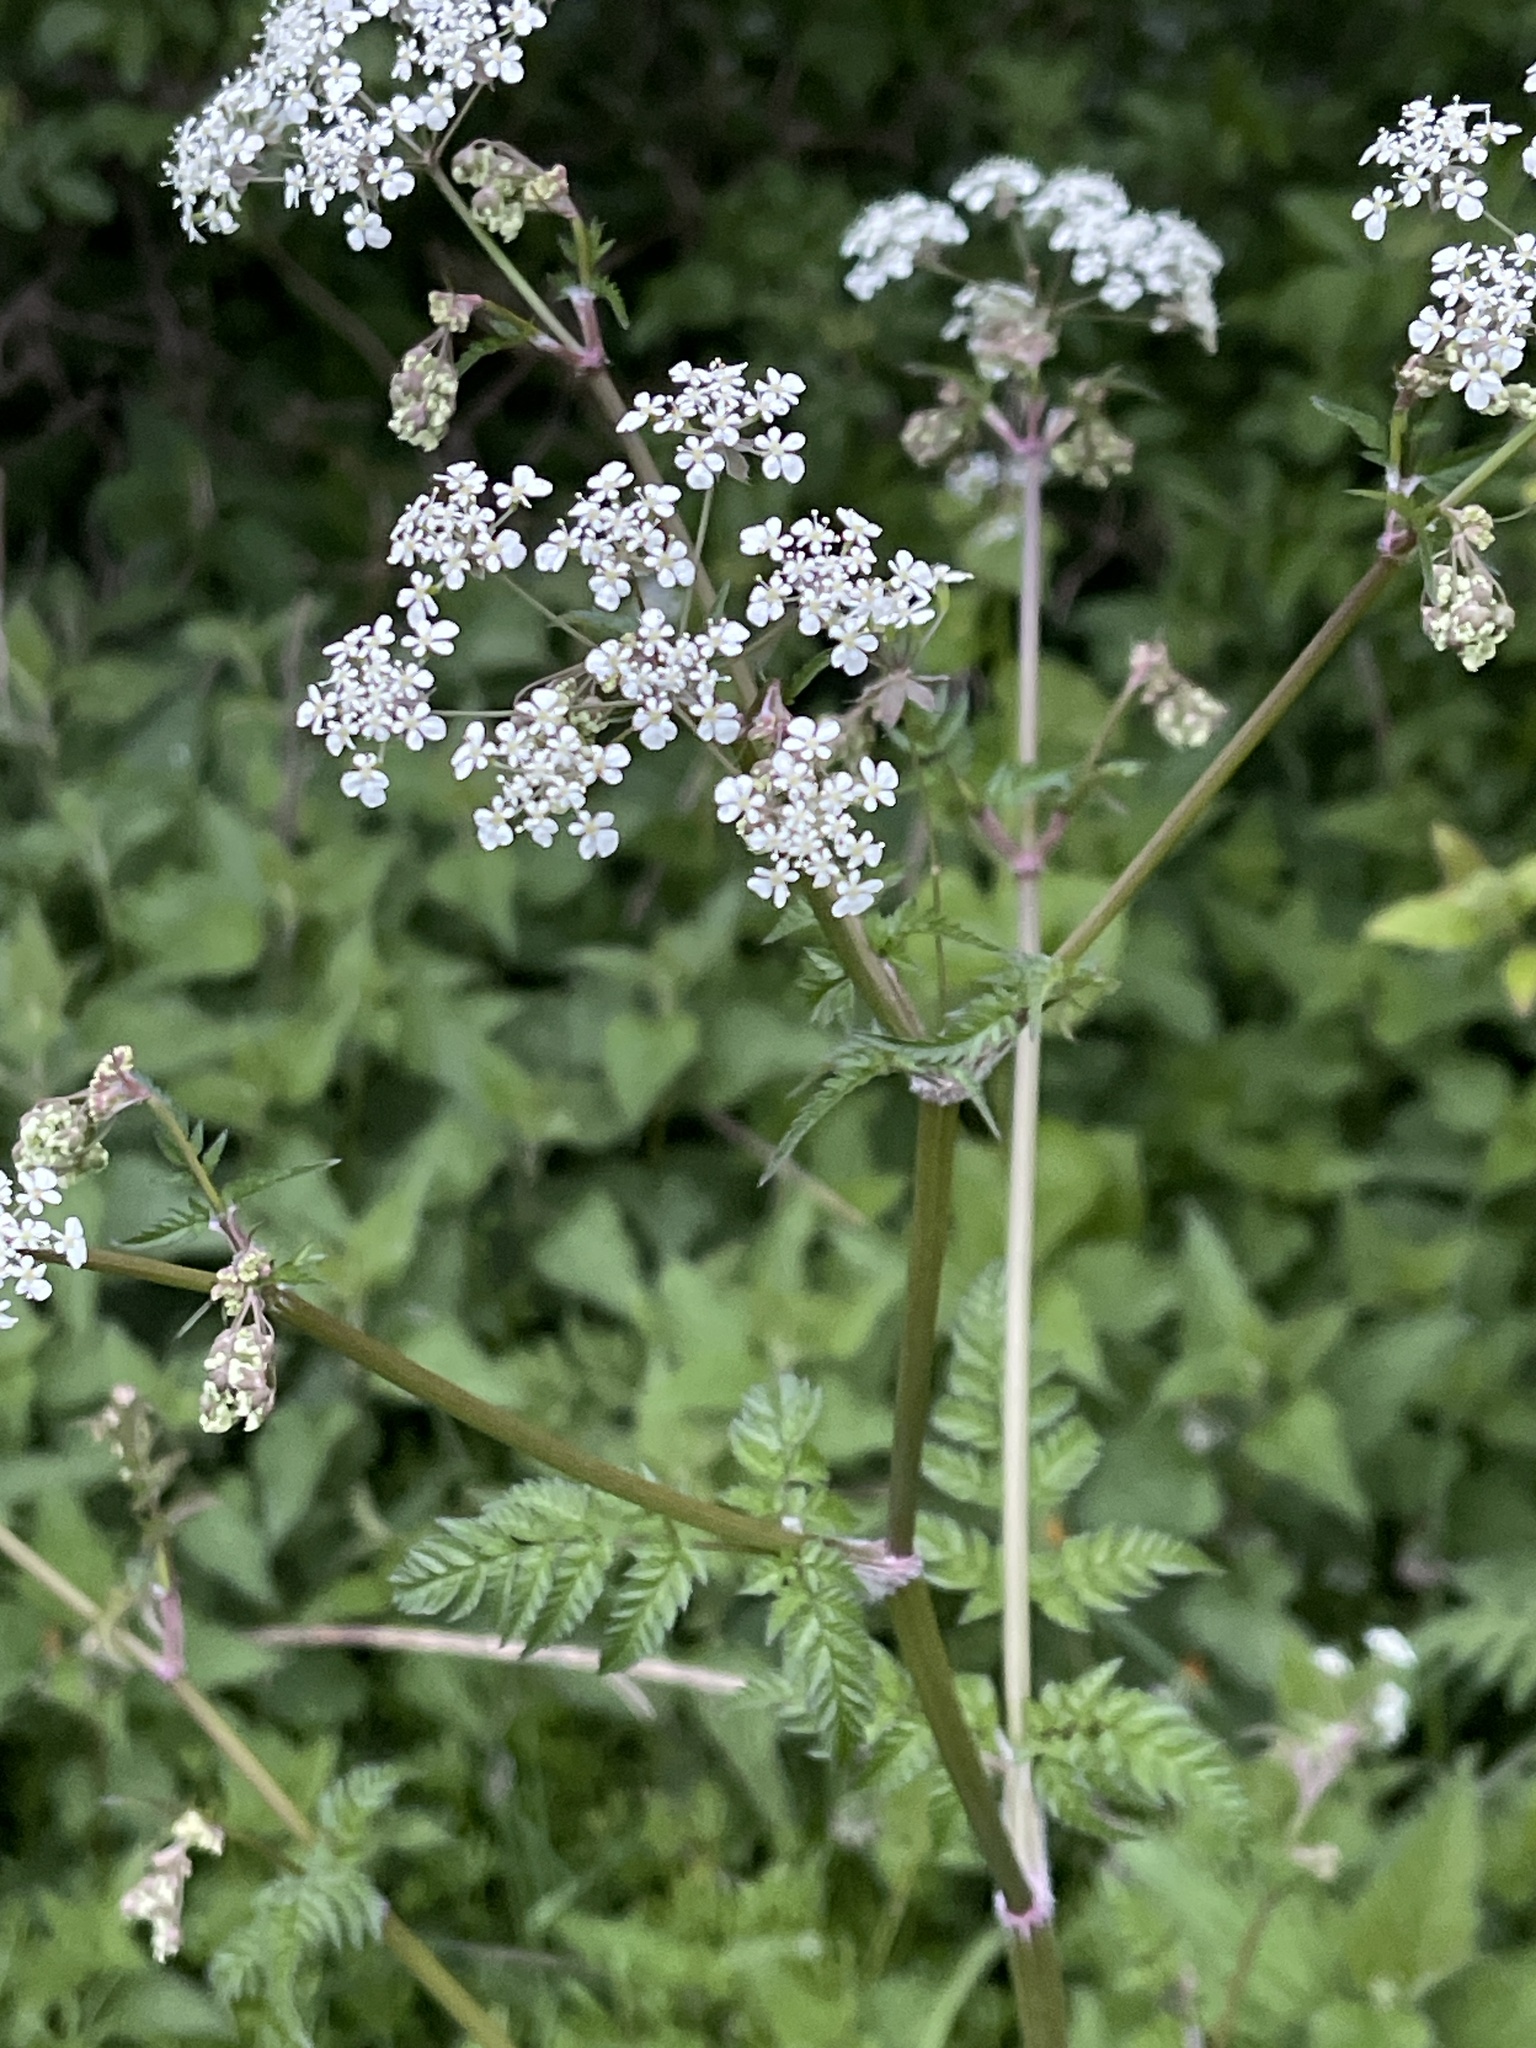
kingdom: Plantae
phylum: Tracheophyta
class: Magnoliopsida
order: Apiales
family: Apiaceae
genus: Anthriscus
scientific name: Anthriscus sylvestris
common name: Cow parsley
